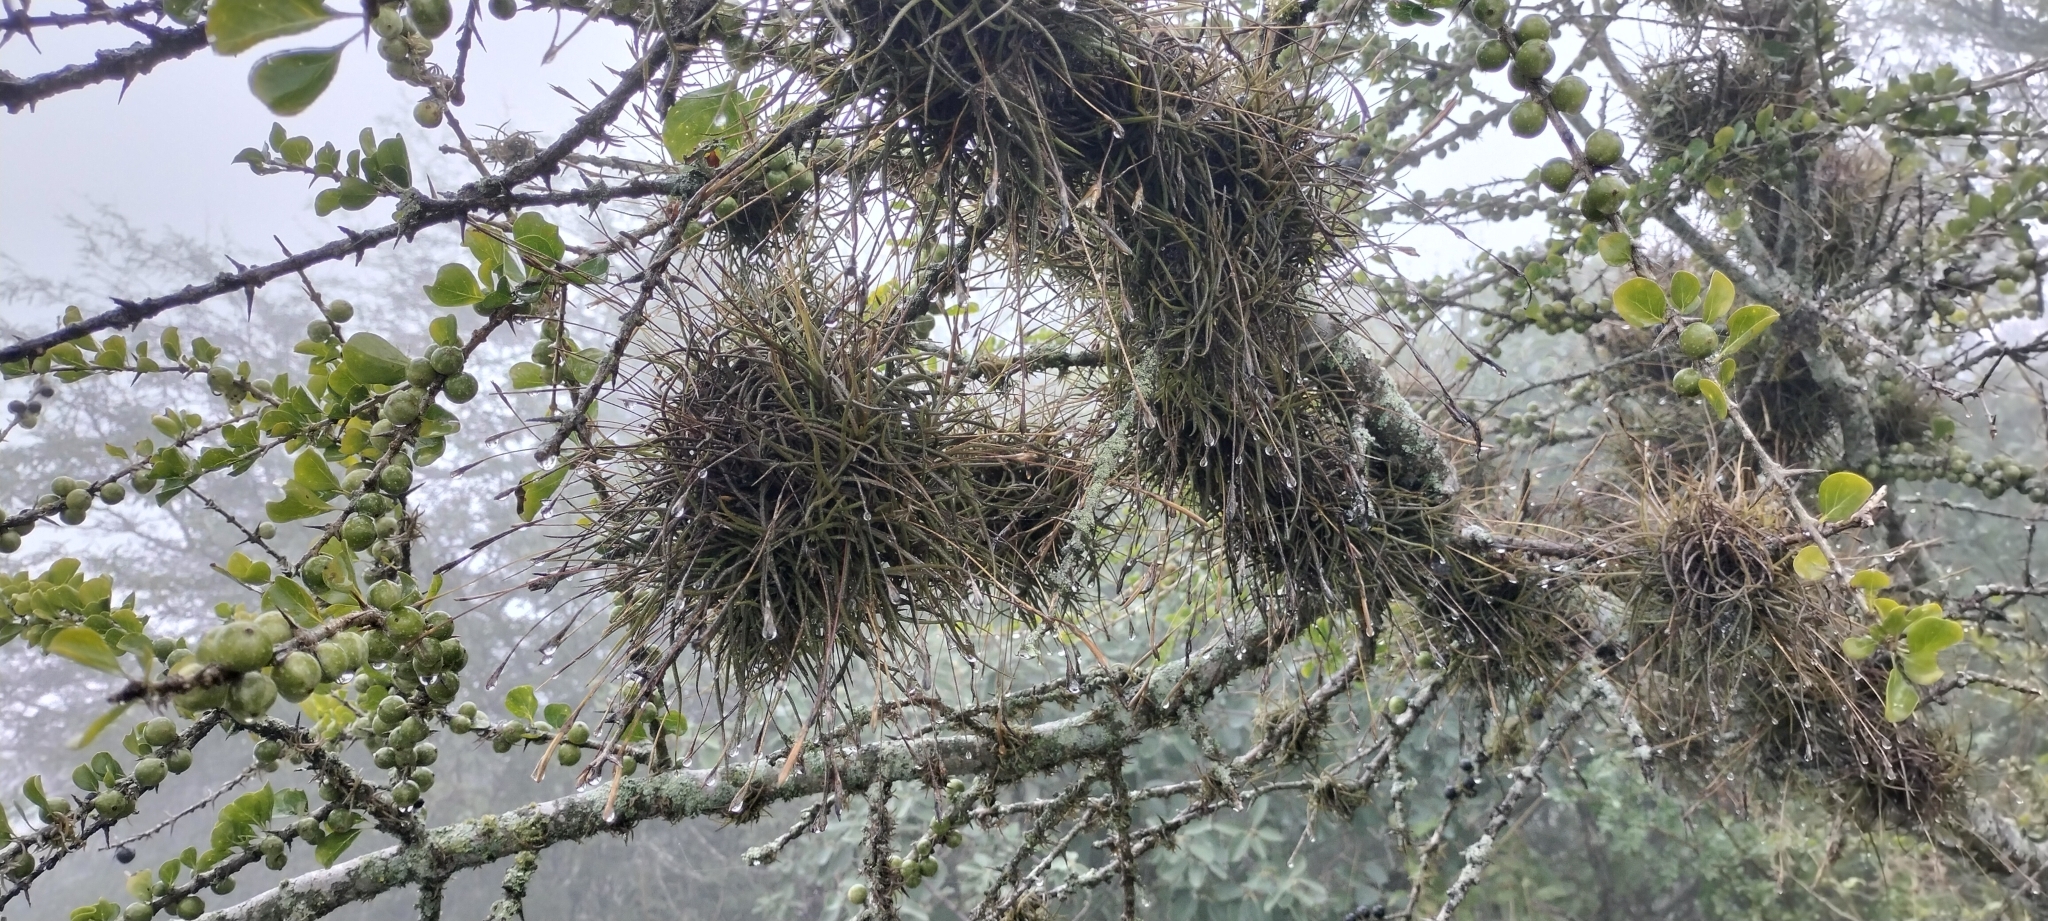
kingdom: Plantae
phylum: Tracheophyta
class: Liliopsida
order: Poales
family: Bromeliaceae
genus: Tillandsia
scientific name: Tillandsia recurvata
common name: Small ballmoss
